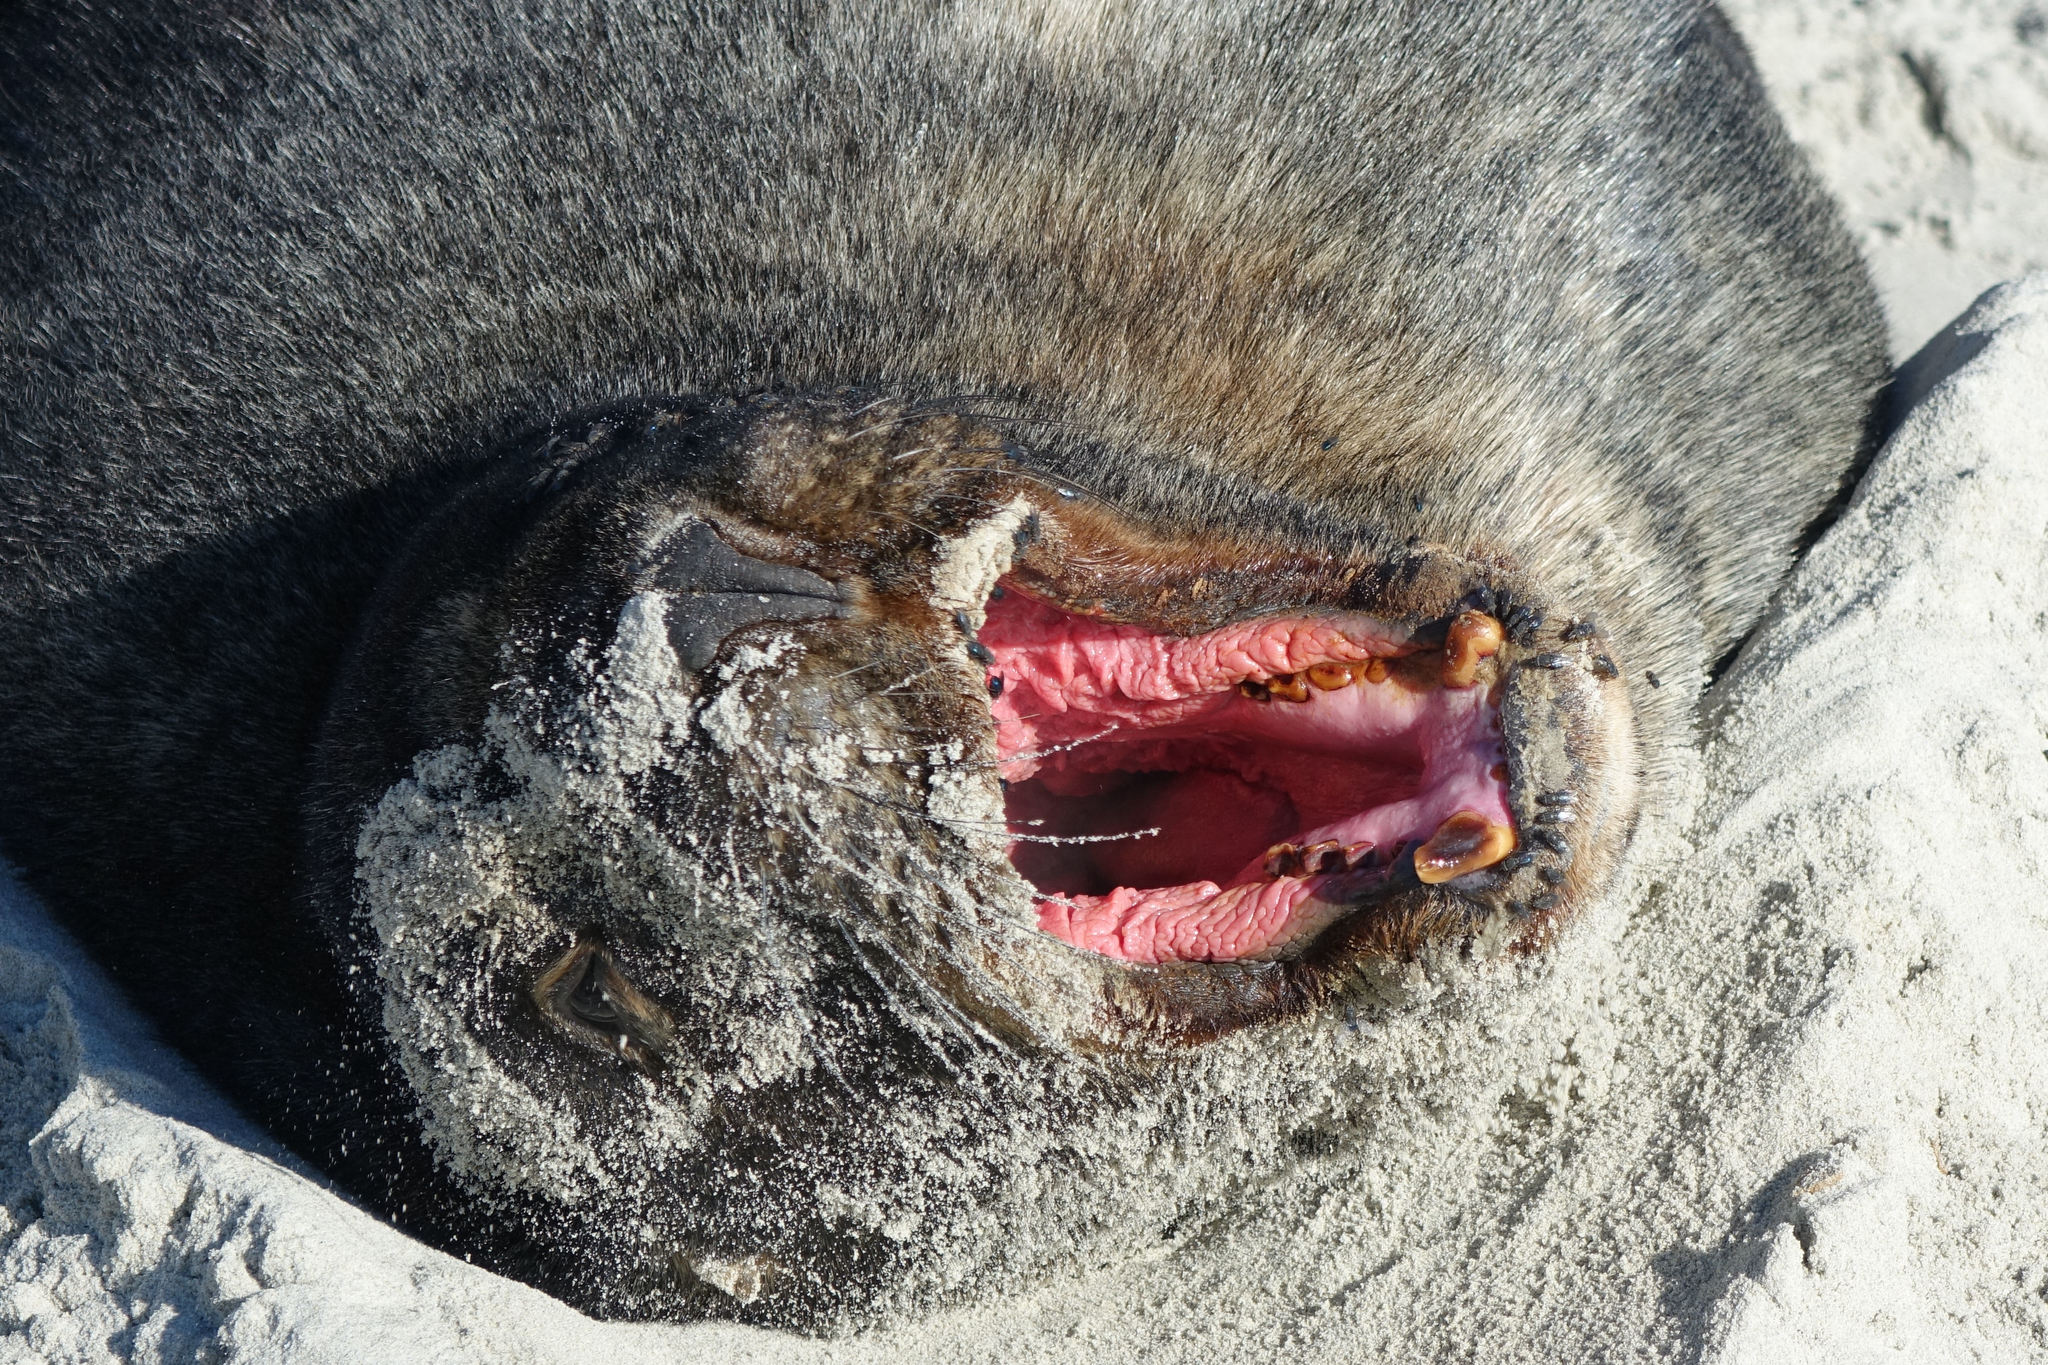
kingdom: Animalia
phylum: Chordata
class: Mammalia
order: Carnivora
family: Otariidae
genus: Phocarctos
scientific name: Phocarctos hookeri
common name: New zealand sea lion
